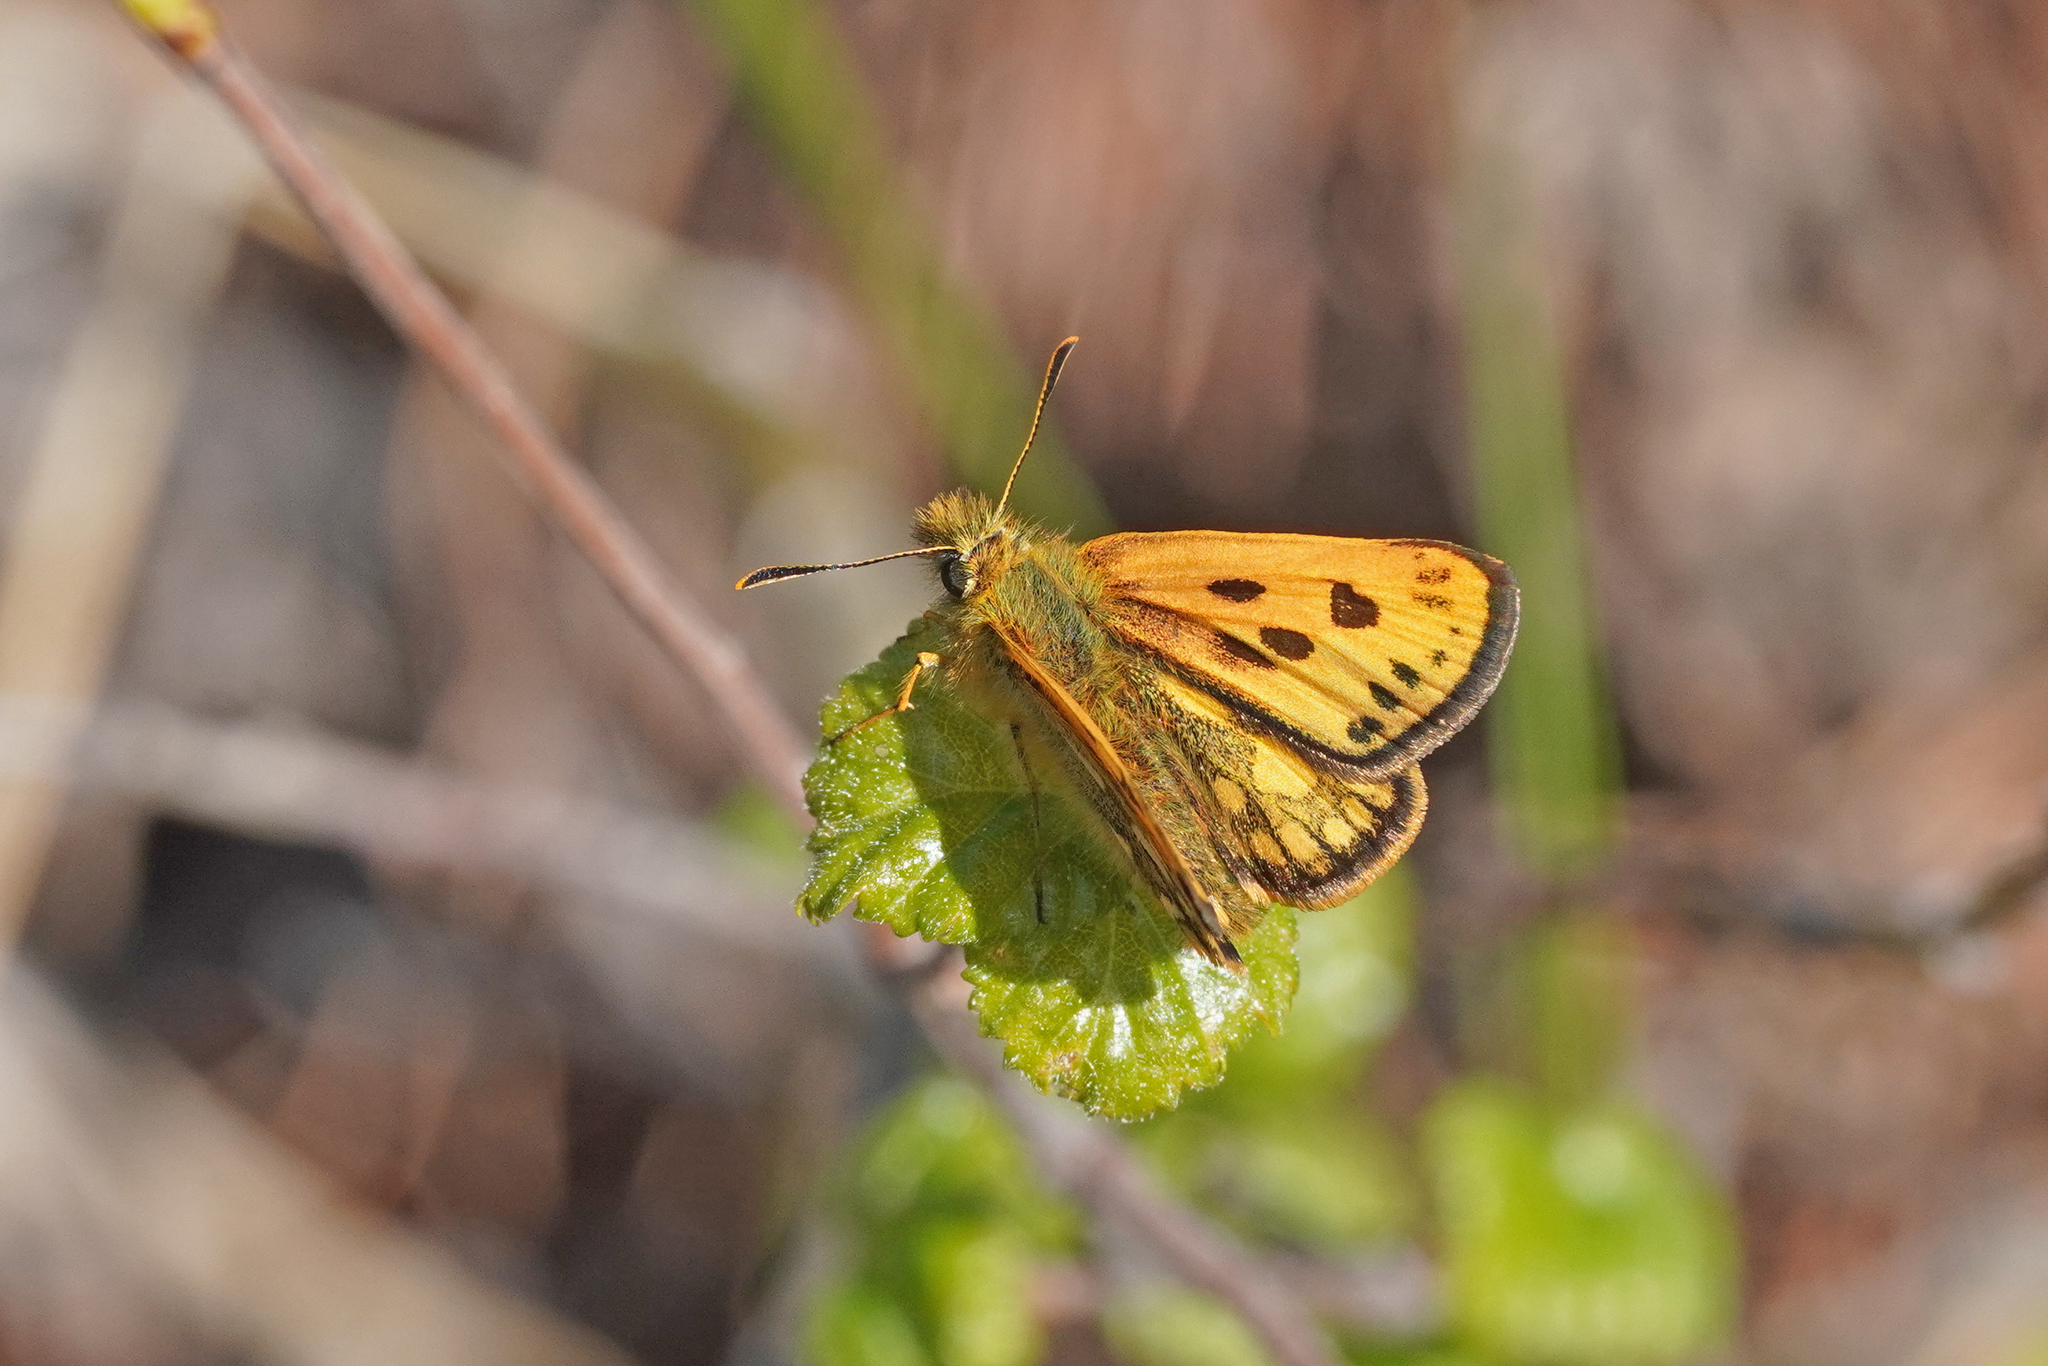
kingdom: Animalia
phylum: Arthropoda
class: Insecta
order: Lepidoptera
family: Hesperiidae
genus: Carterocephalus
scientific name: Carterocephalus silvicola
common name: Northern chequered skipper
